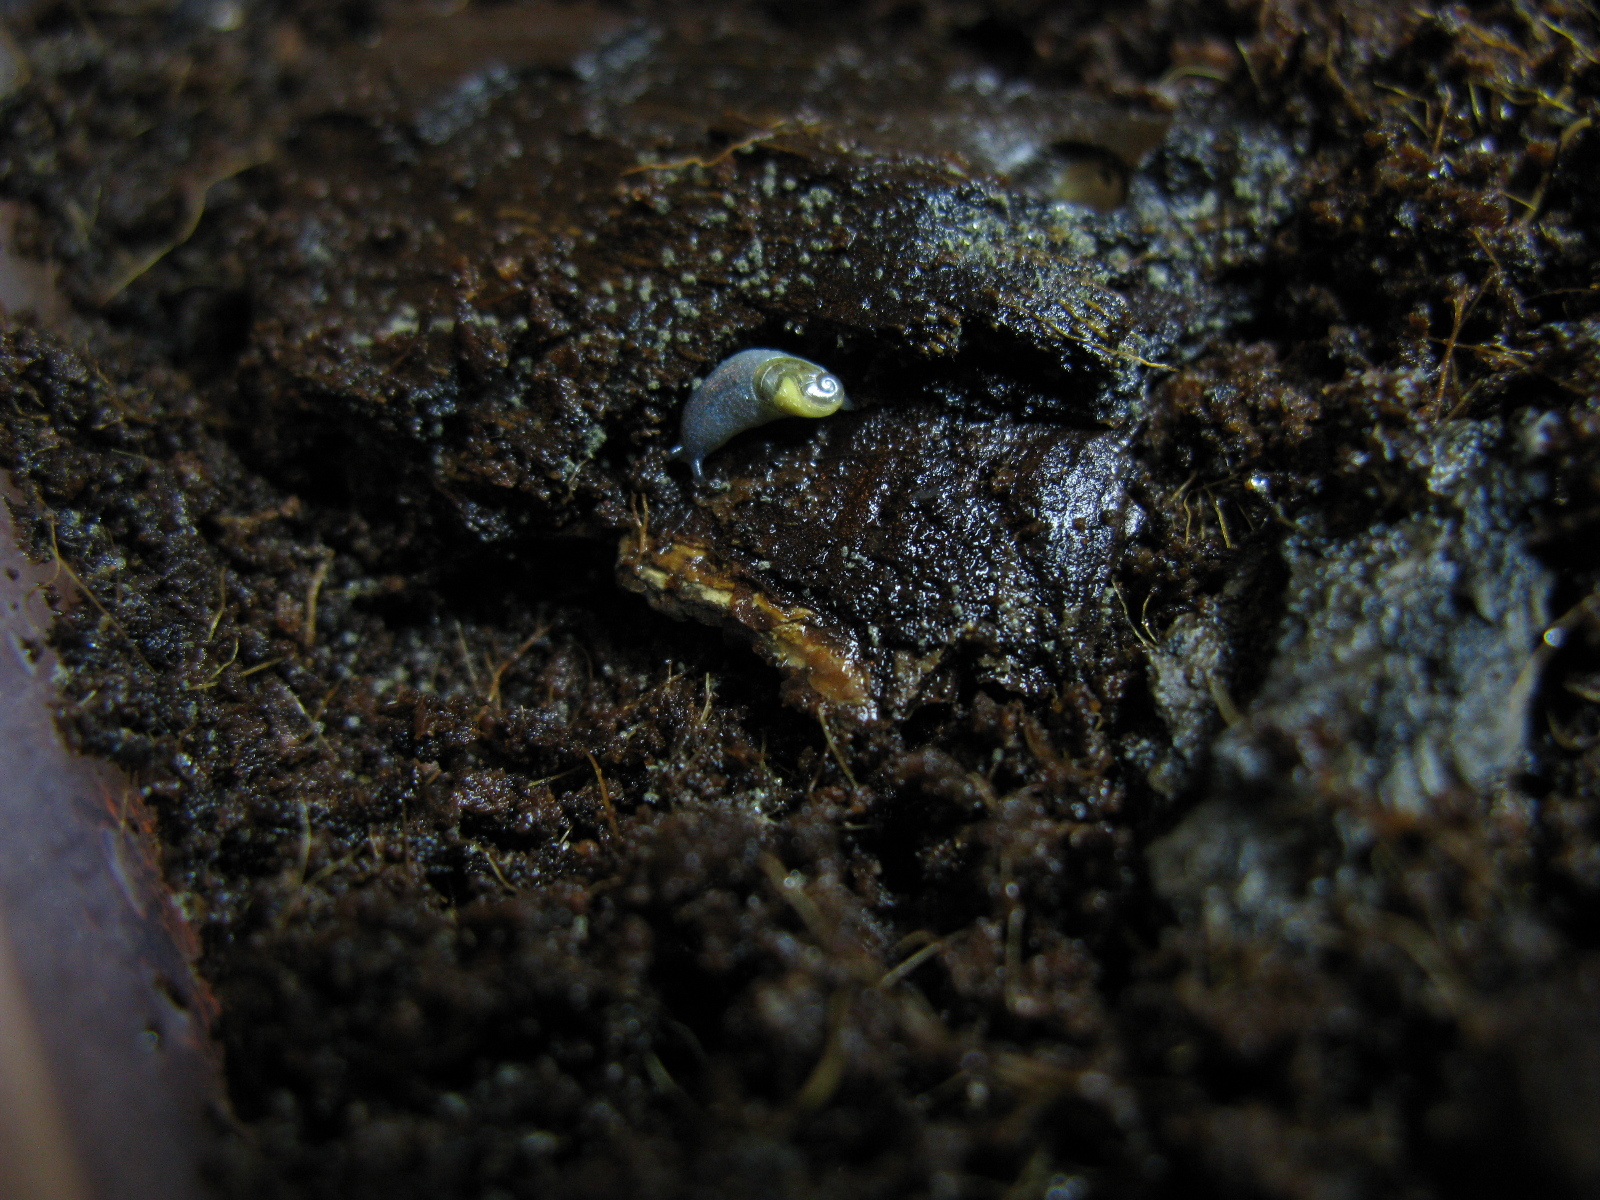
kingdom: Animalia
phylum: Mollusca
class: Gastropoda
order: Stylommatophora
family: Oxychilidae
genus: Daudebardia
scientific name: Daudebardia brevipes
